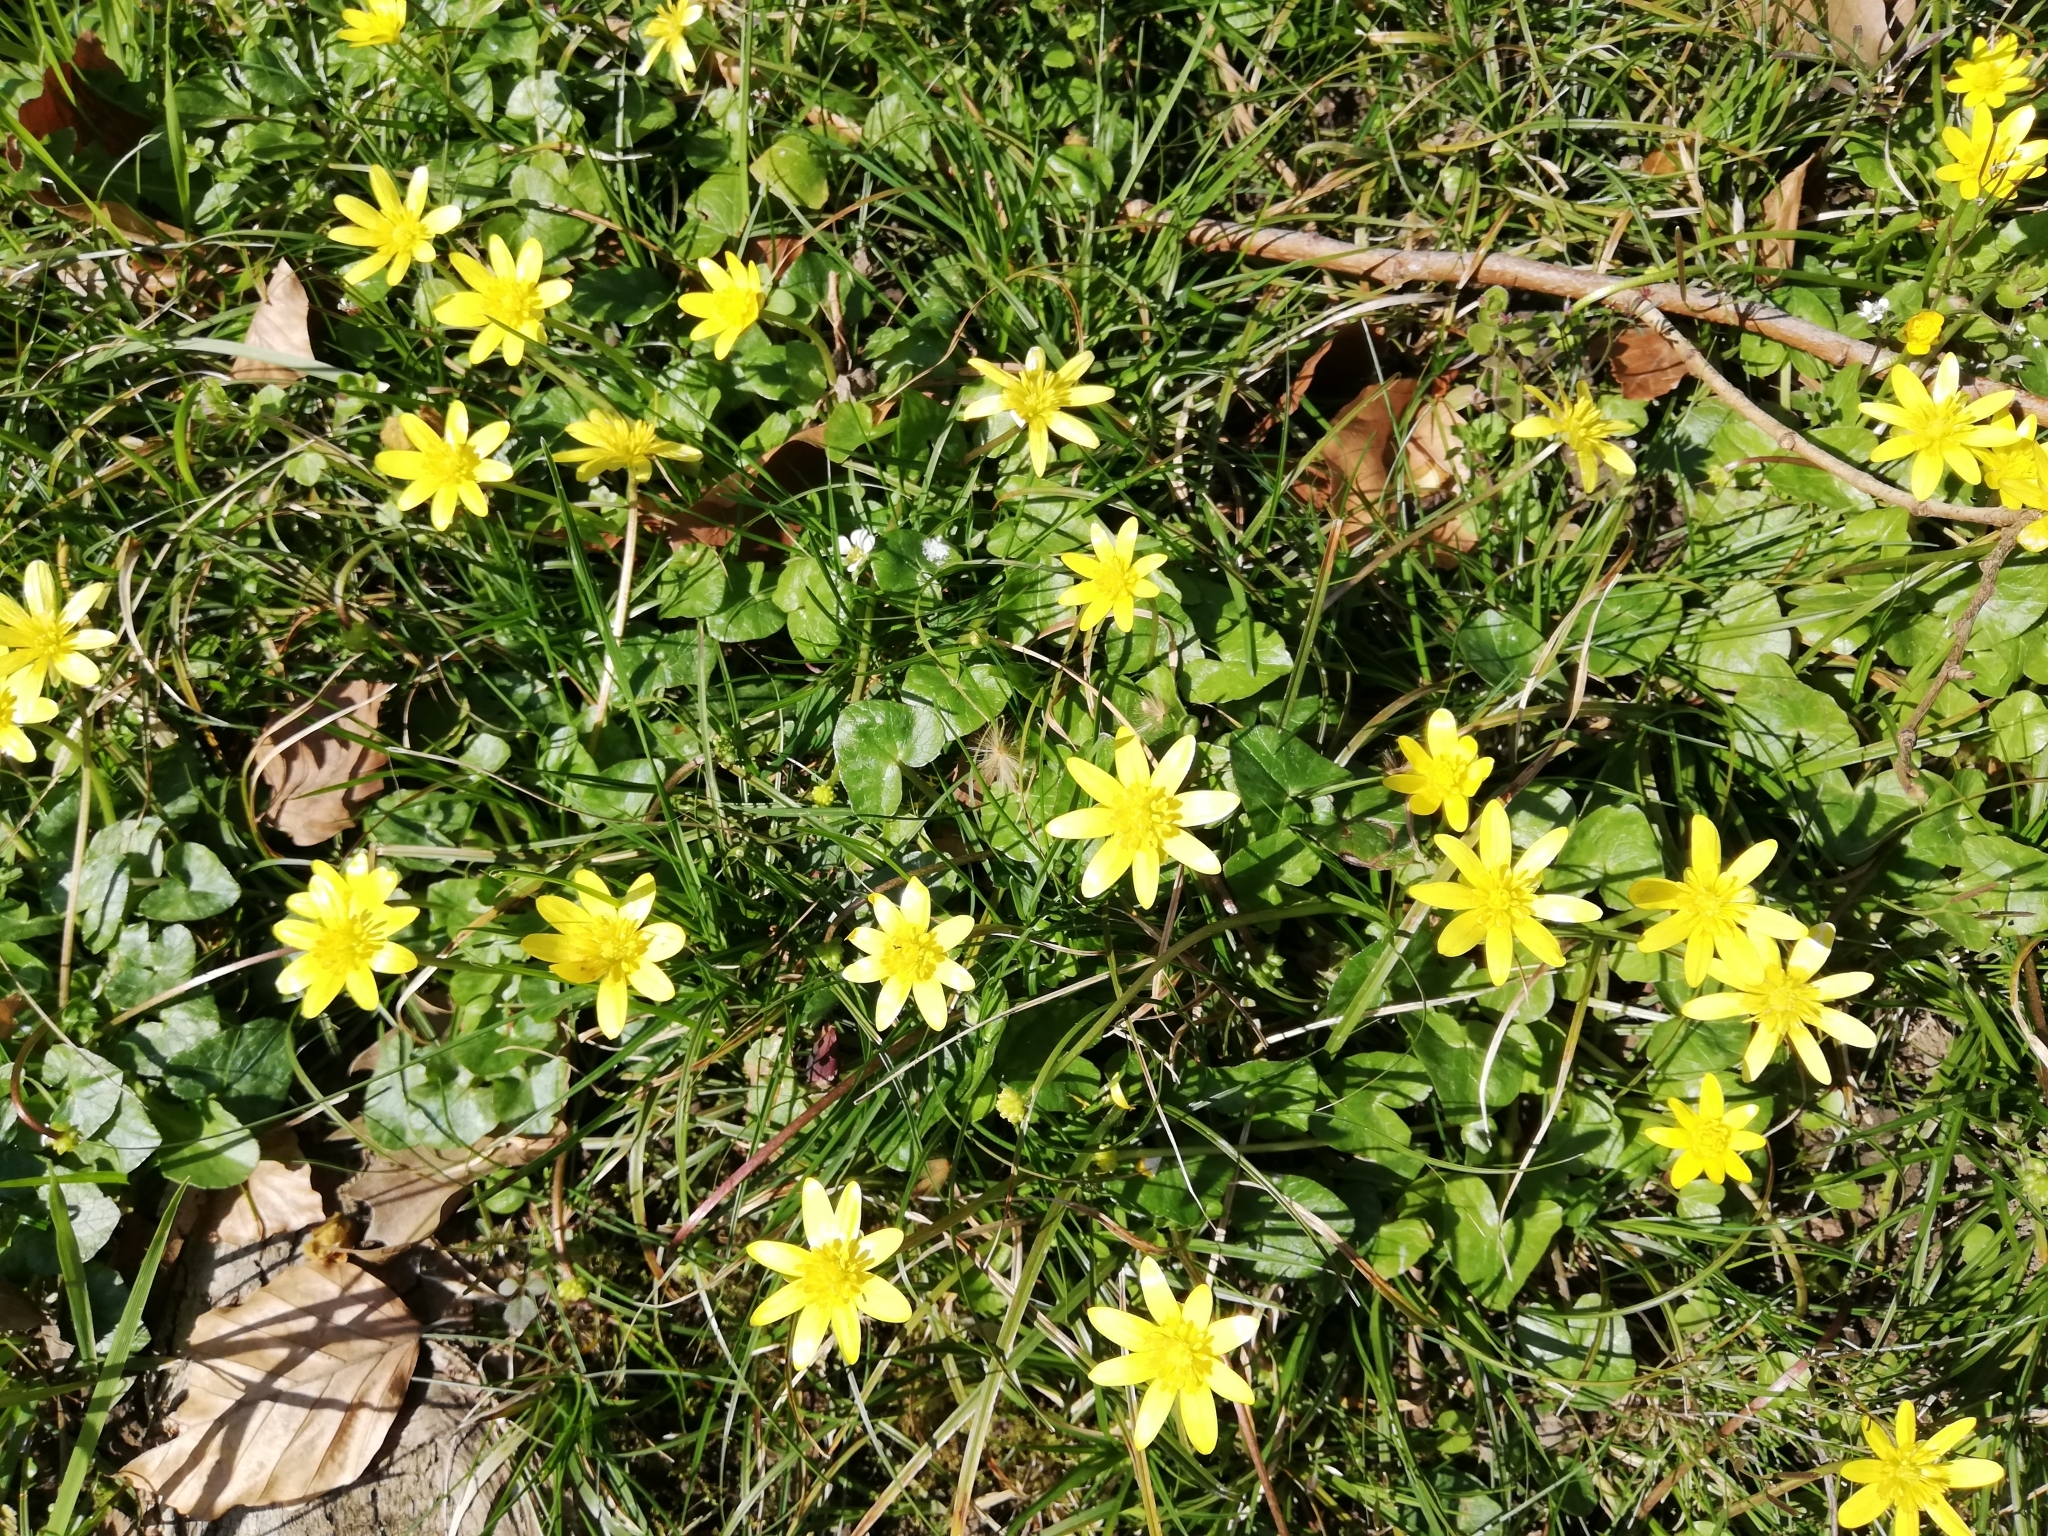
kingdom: Plantae
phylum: Tracheophyta
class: Magnoliopsida
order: Ranunculales
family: Ranunculaceae
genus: Ficaria
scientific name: Ficaria verna
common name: Lesser celandine
